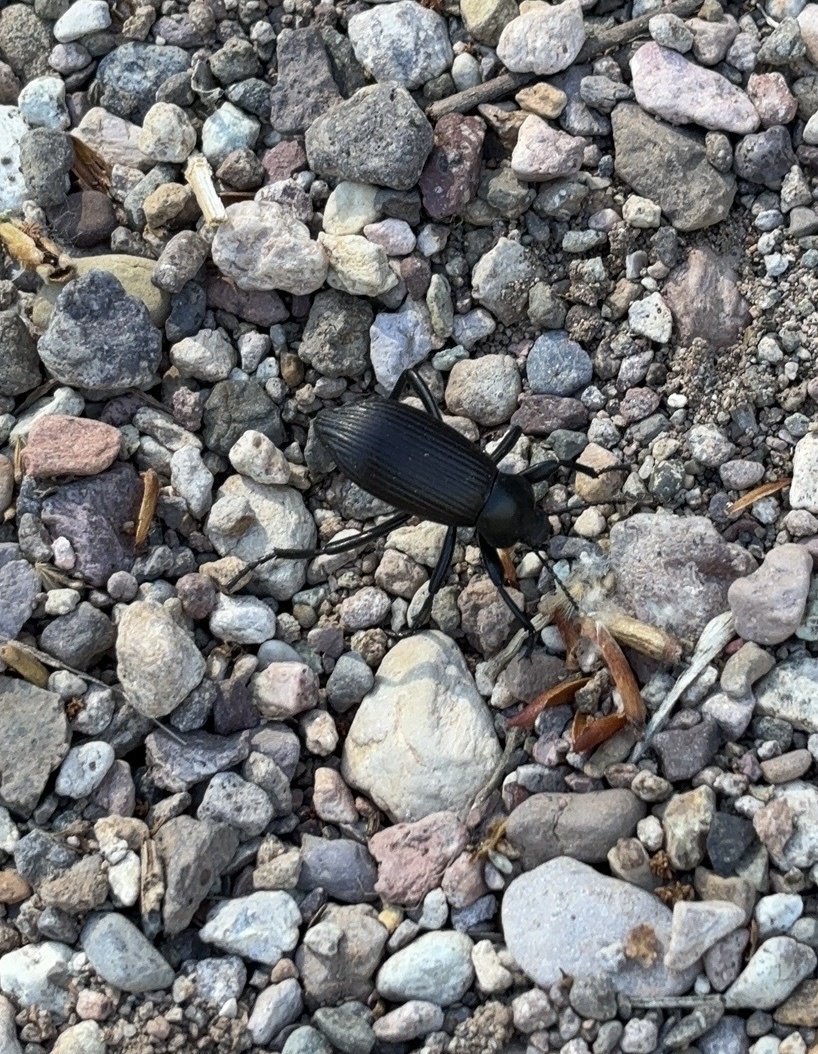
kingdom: Animalia
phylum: Arthropoda
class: Insecta
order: Coleoptera
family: Tenebrionidae
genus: Eleodes
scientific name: Eleodes obscura
